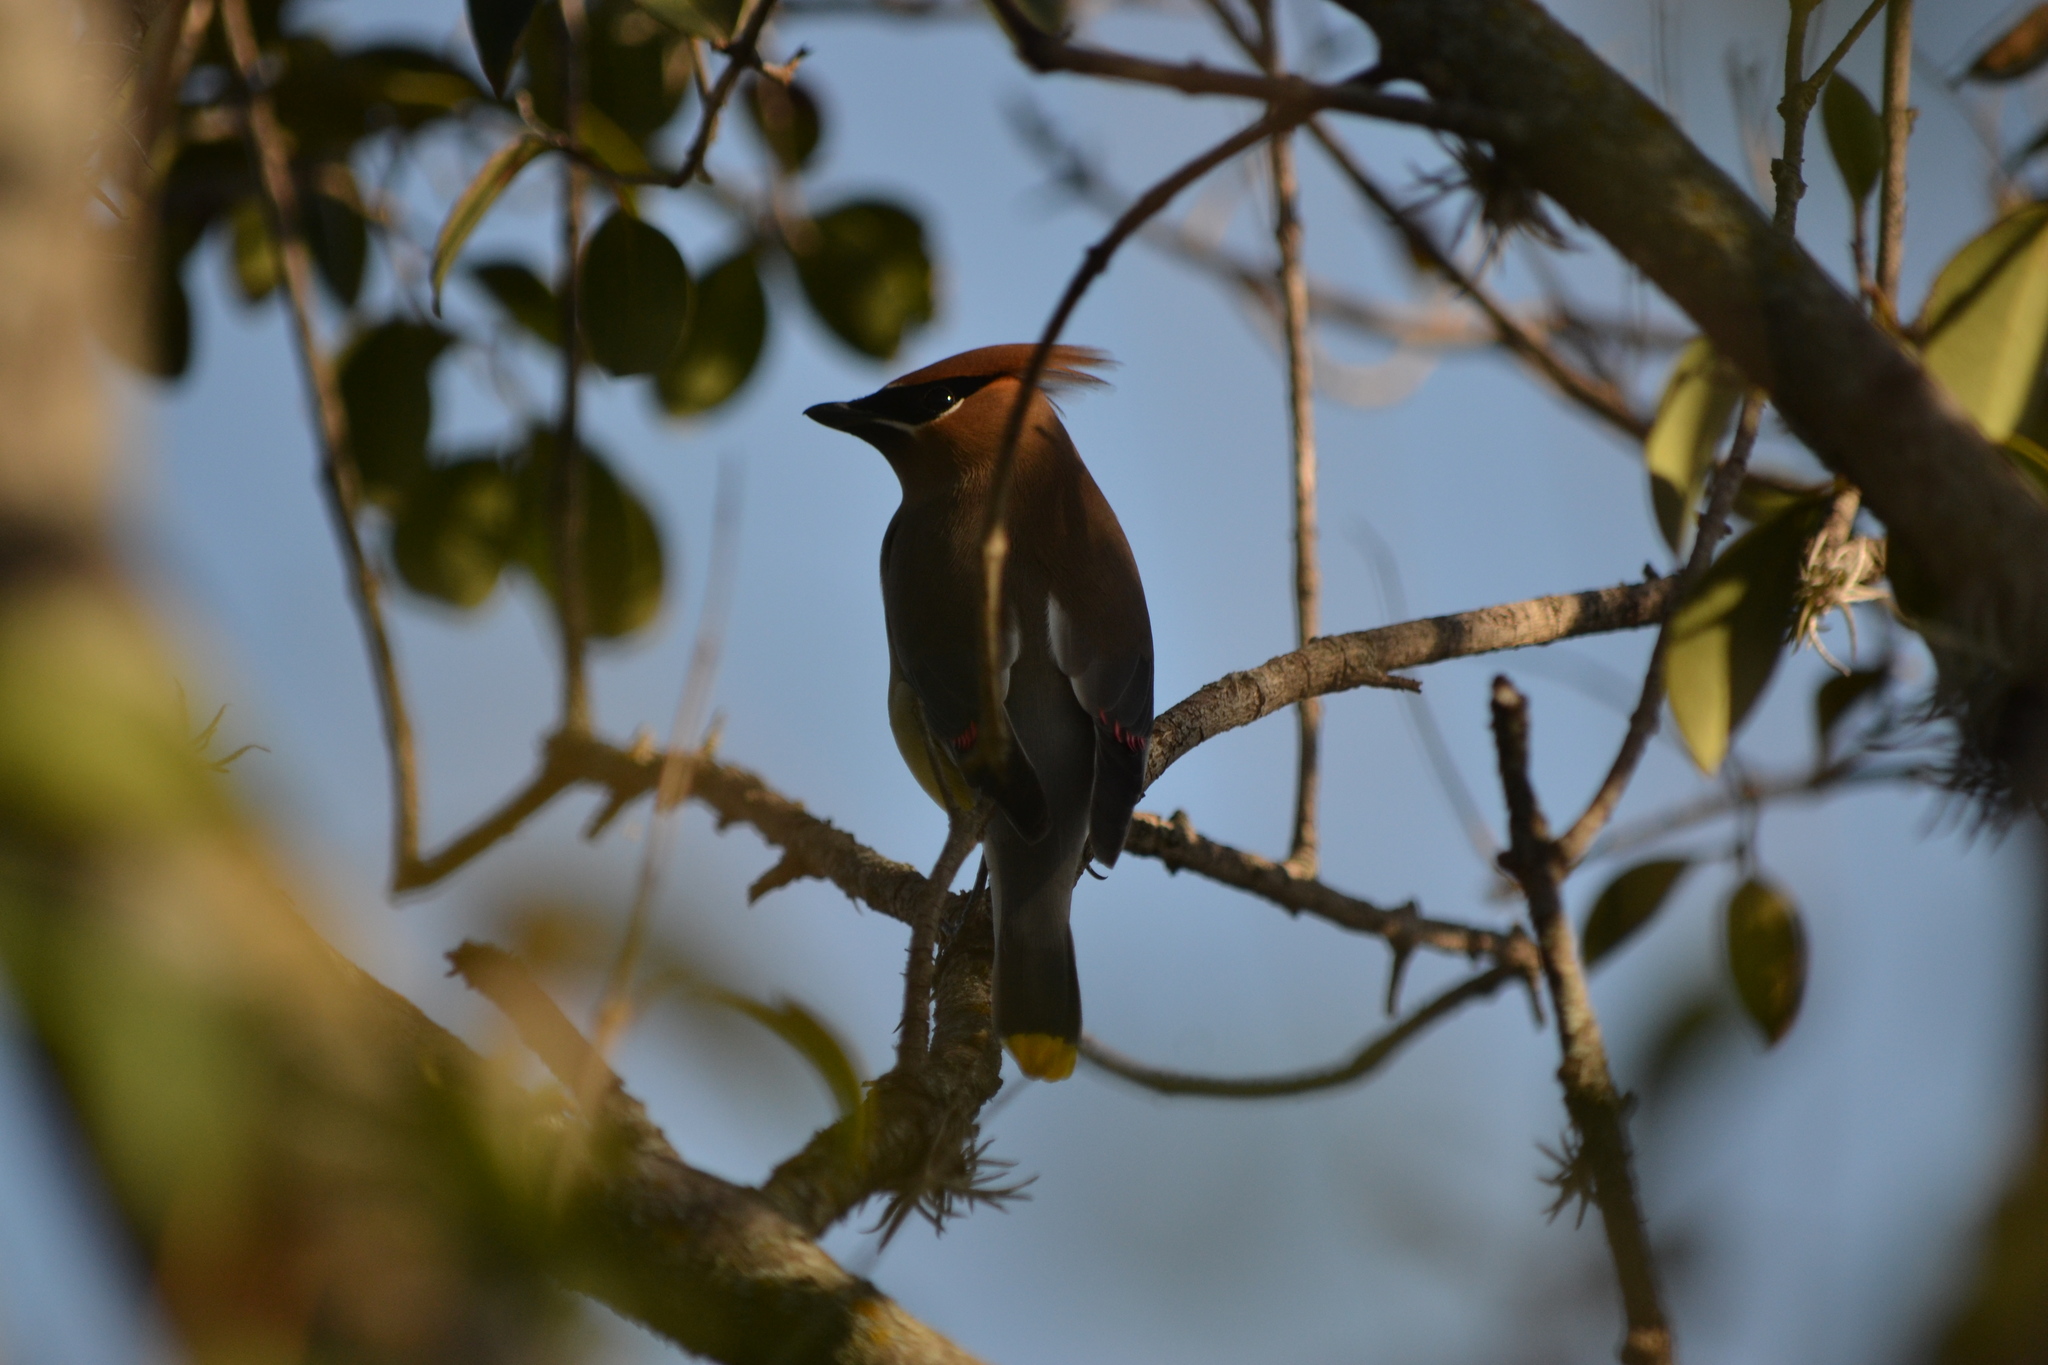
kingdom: Animalia
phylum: Chordata
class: Aves
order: Passeriformes
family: Bombycillidae
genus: Bombycilla
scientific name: Bombycilla cedrorum
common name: Cedar waxwing
